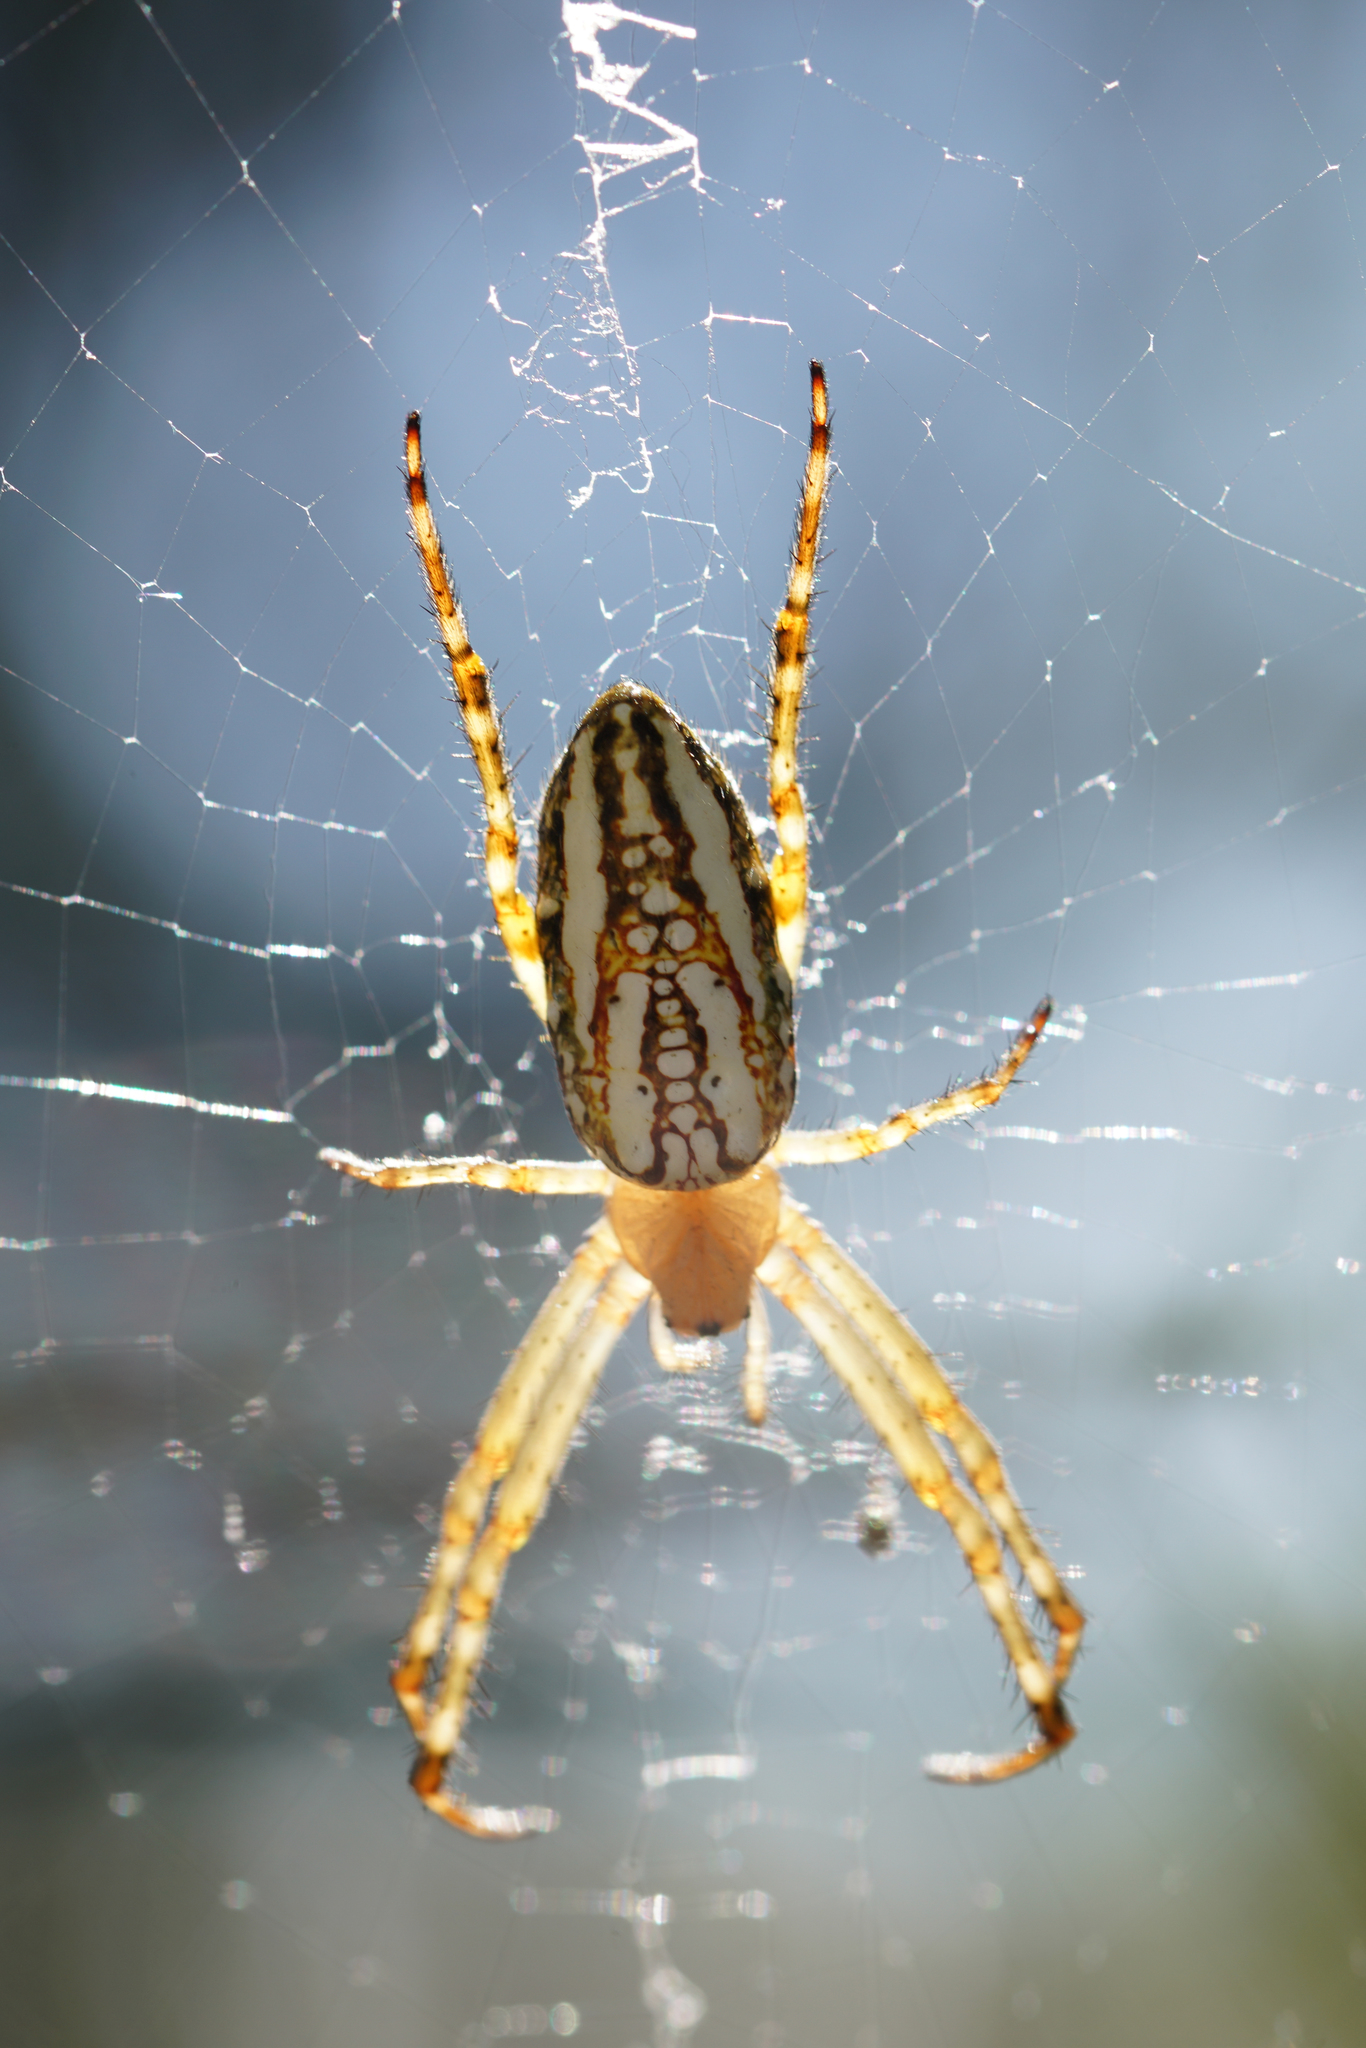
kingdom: Animalia
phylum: Arthropoda
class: Arachnida
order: Araneae
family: Araneidae
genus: Plebs
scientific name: Plebs bradleyi
